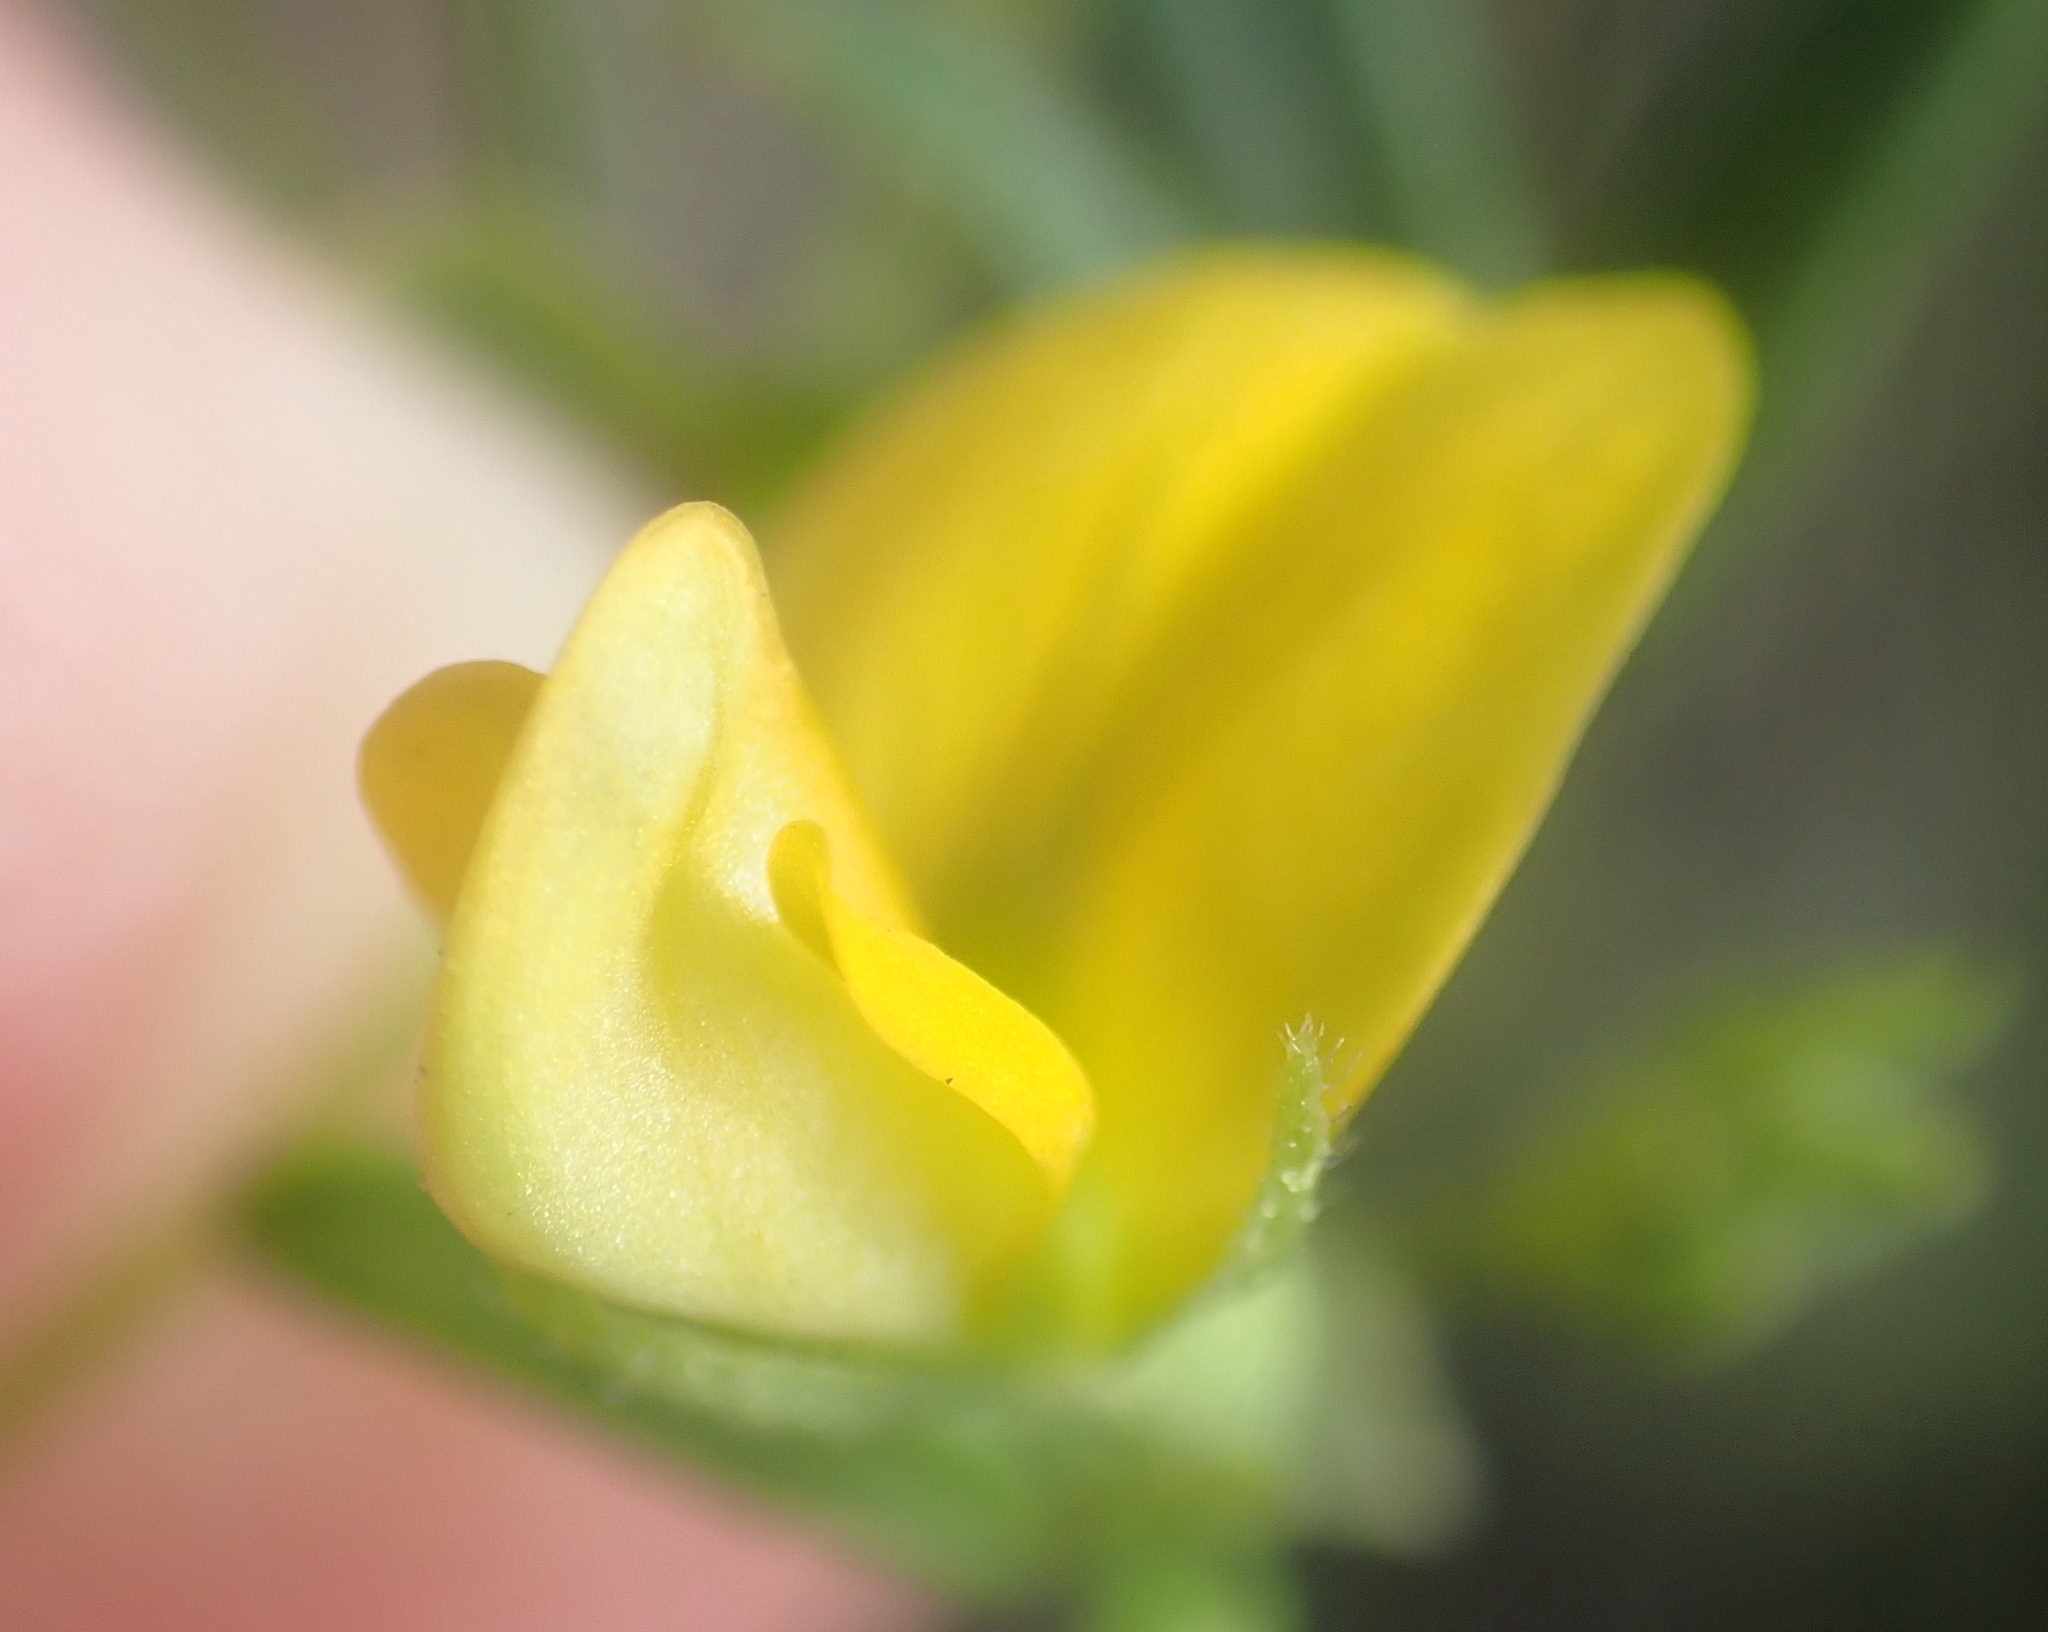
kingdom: Plantae
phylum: Tracheophyta
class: Magnoliopsida
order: Fabales
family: Fabaceae
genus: Rhynchosia
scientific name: Rhynchosia leucoscias
